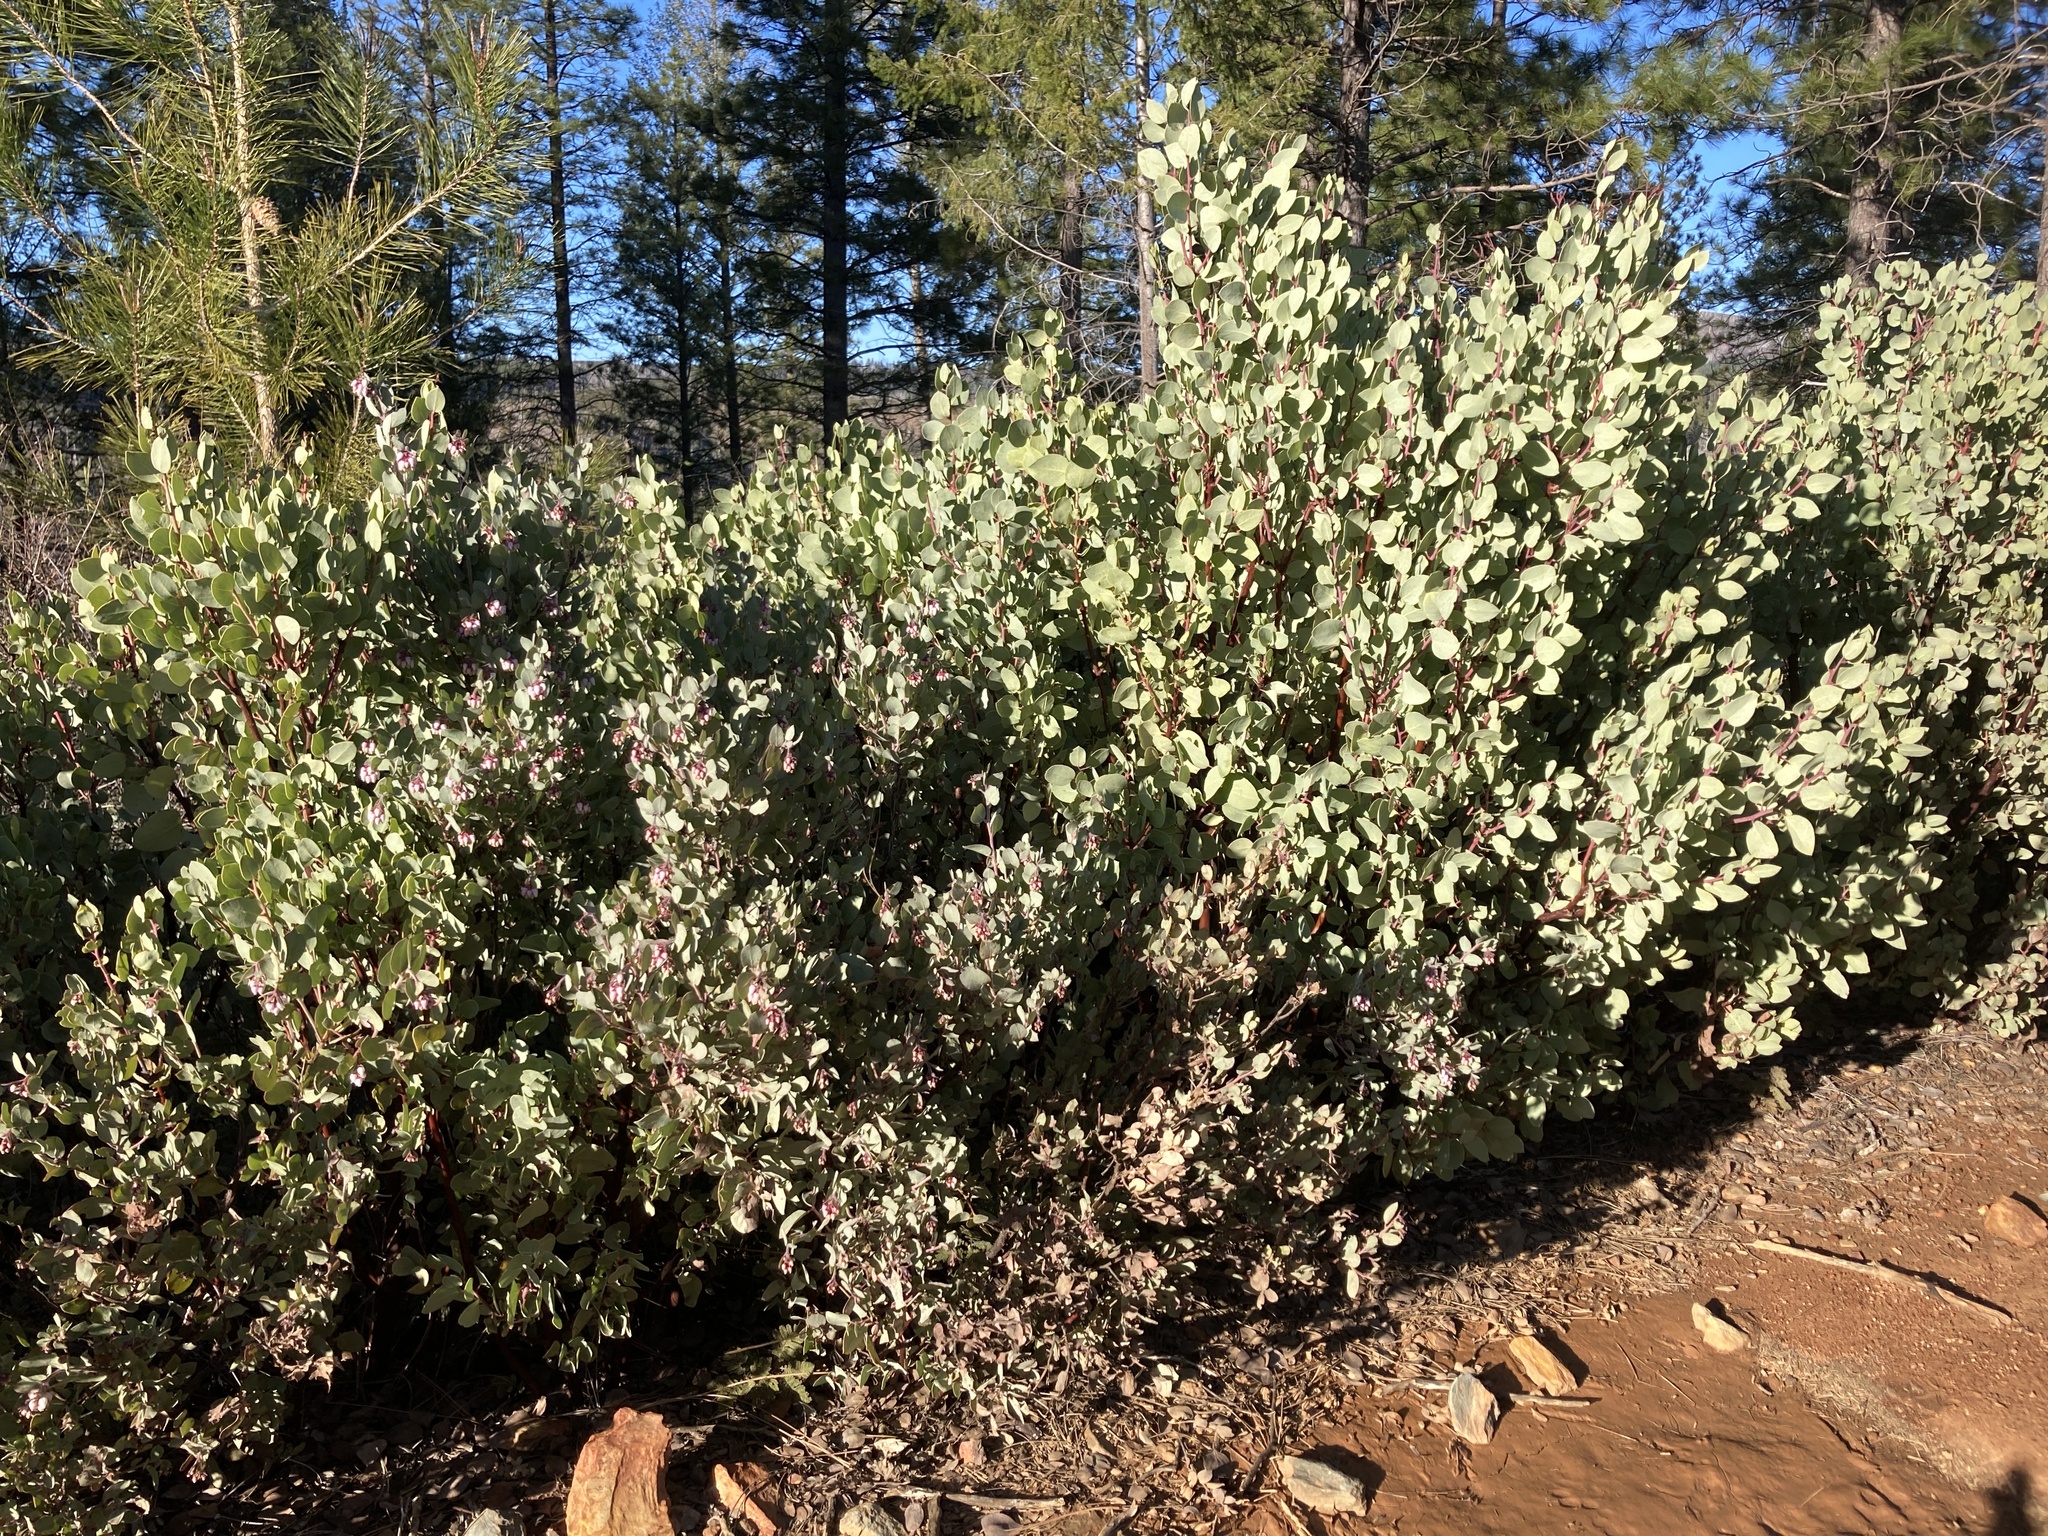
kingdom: Plantae
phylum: Tracheophyta
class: Magnoliopsida
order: Ericales
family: Ericaceae
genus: Arctostaphylos
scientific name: Arctostaphylos viscida
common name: White-leaf manzanita
